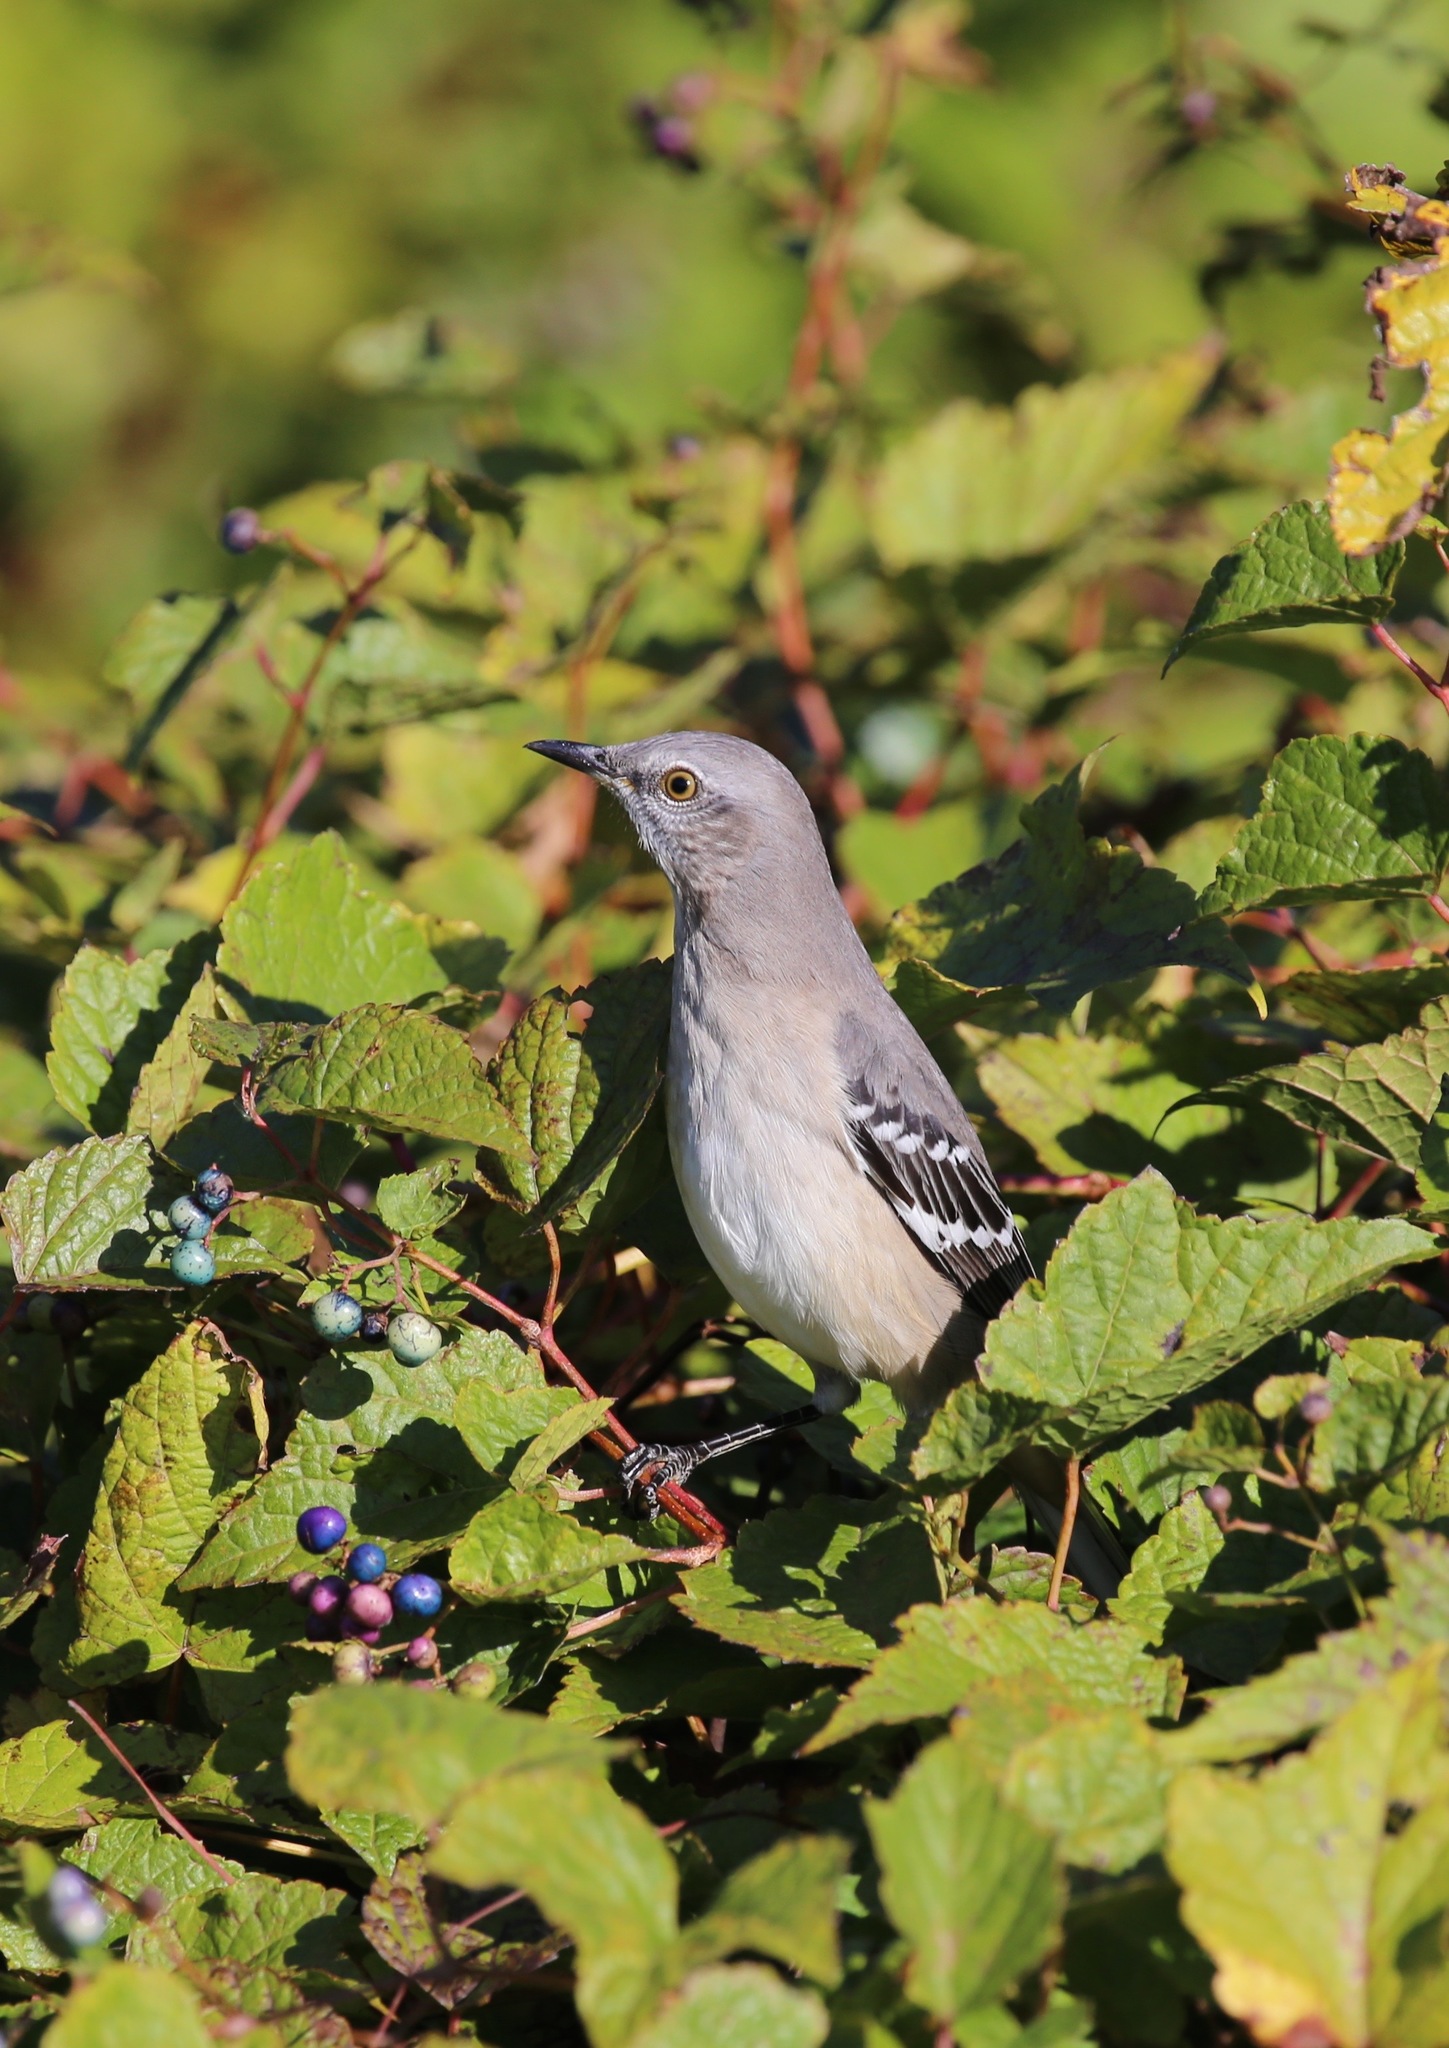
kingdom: Animalia
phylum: Chordata
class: Aves
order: Passeriformes
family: Mimidae
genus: Mimus
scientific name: Mimus polyglottos
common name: Northern mockingbird
